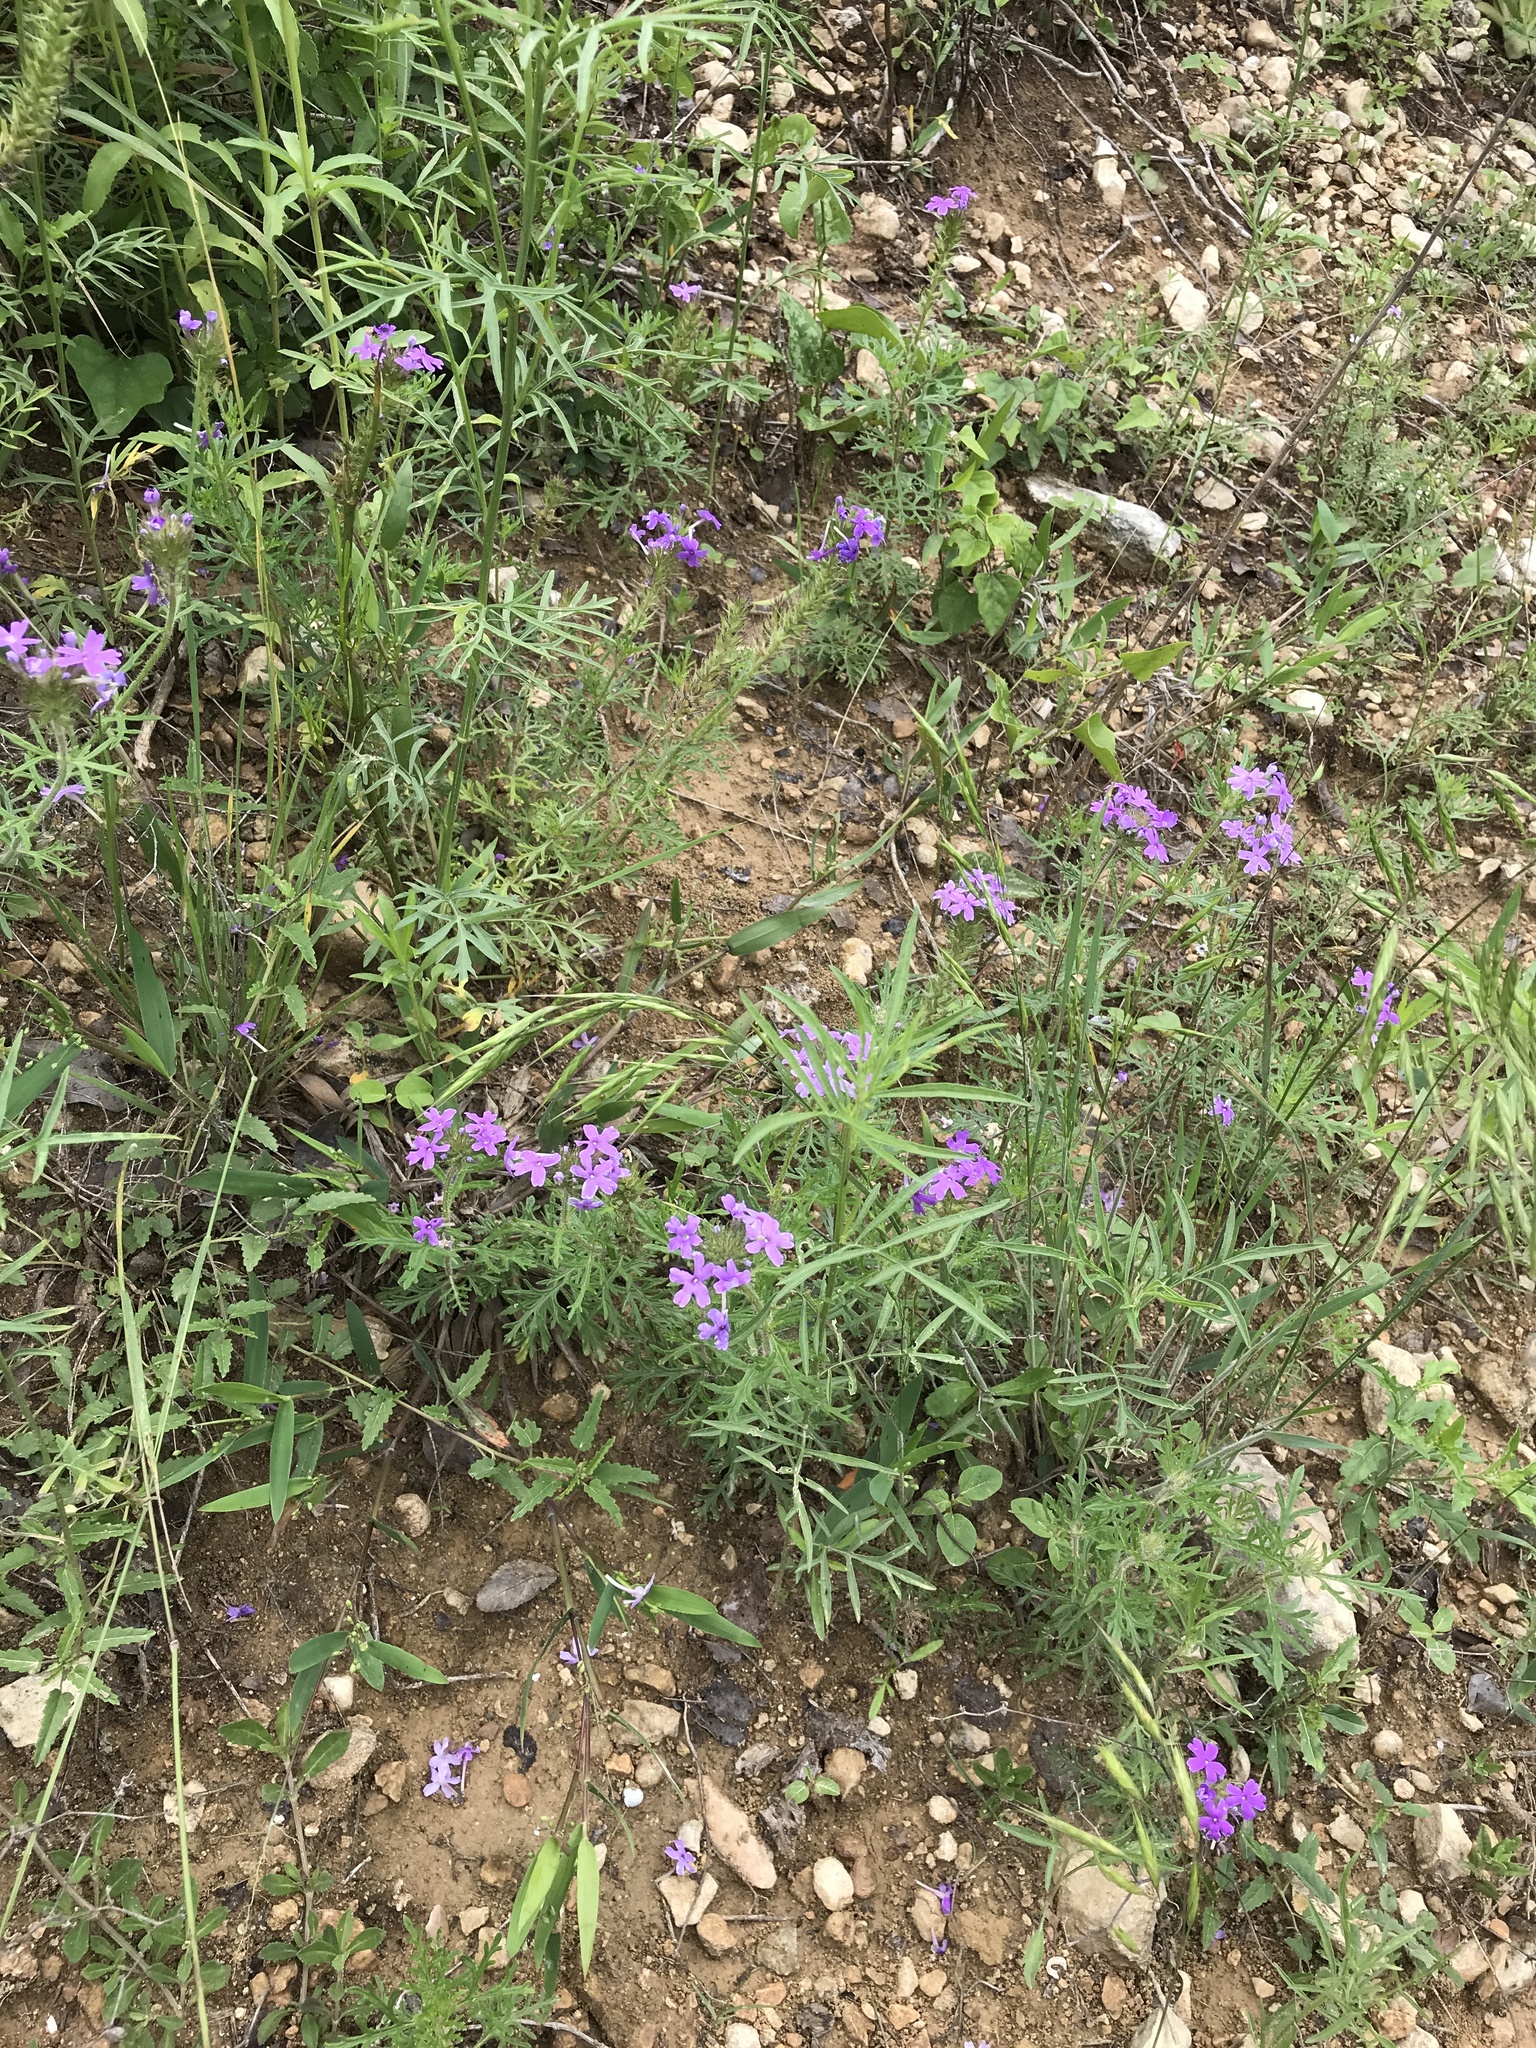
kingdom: Plantae
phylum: Tracheophyta
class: Magnoliopsida
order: Lamiales
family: Verbenaceae
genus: Verbena
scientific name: Verbena bipinnatifida
